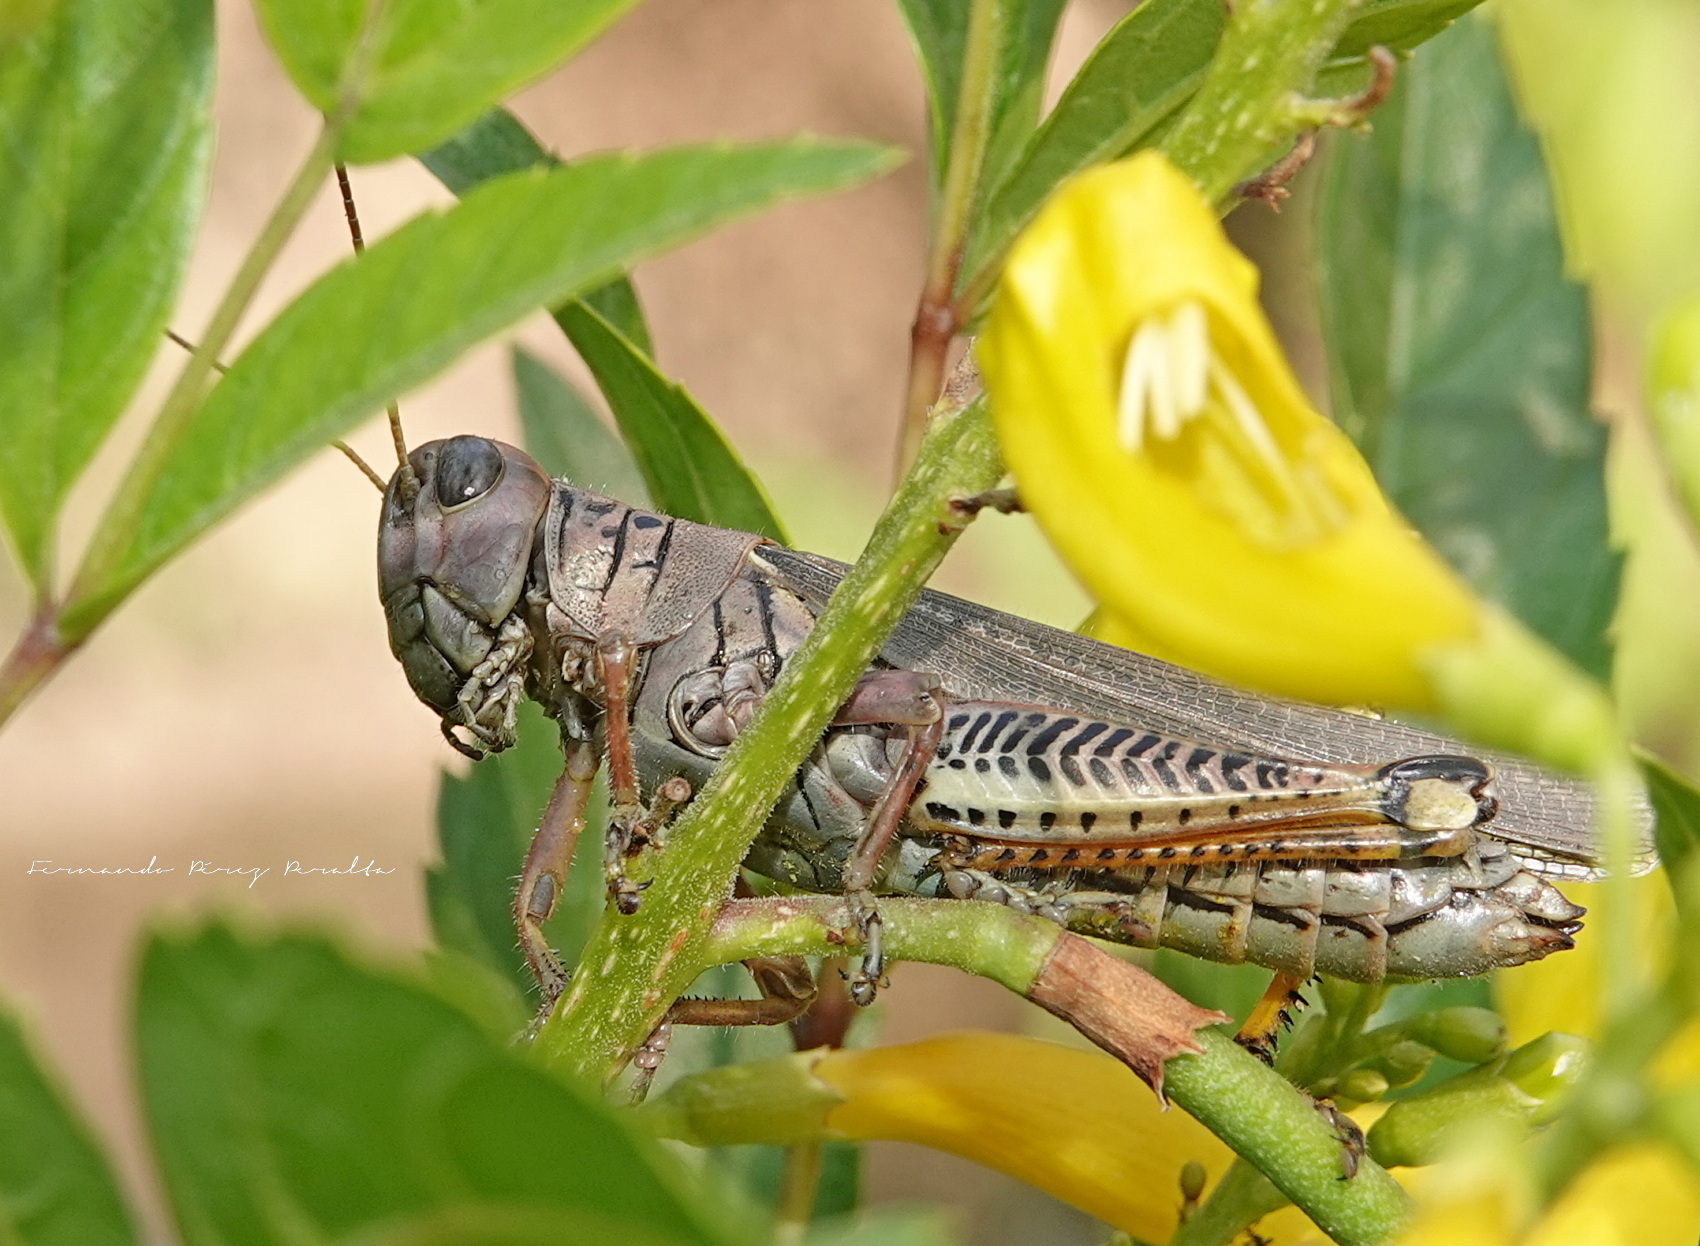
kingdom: Animalia
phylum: Arthropoda
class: Insecta
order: Orthoptera
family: Acrididae
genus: Melanoplus
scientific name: Melanoplus differentialis
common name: Differential grasshopper
